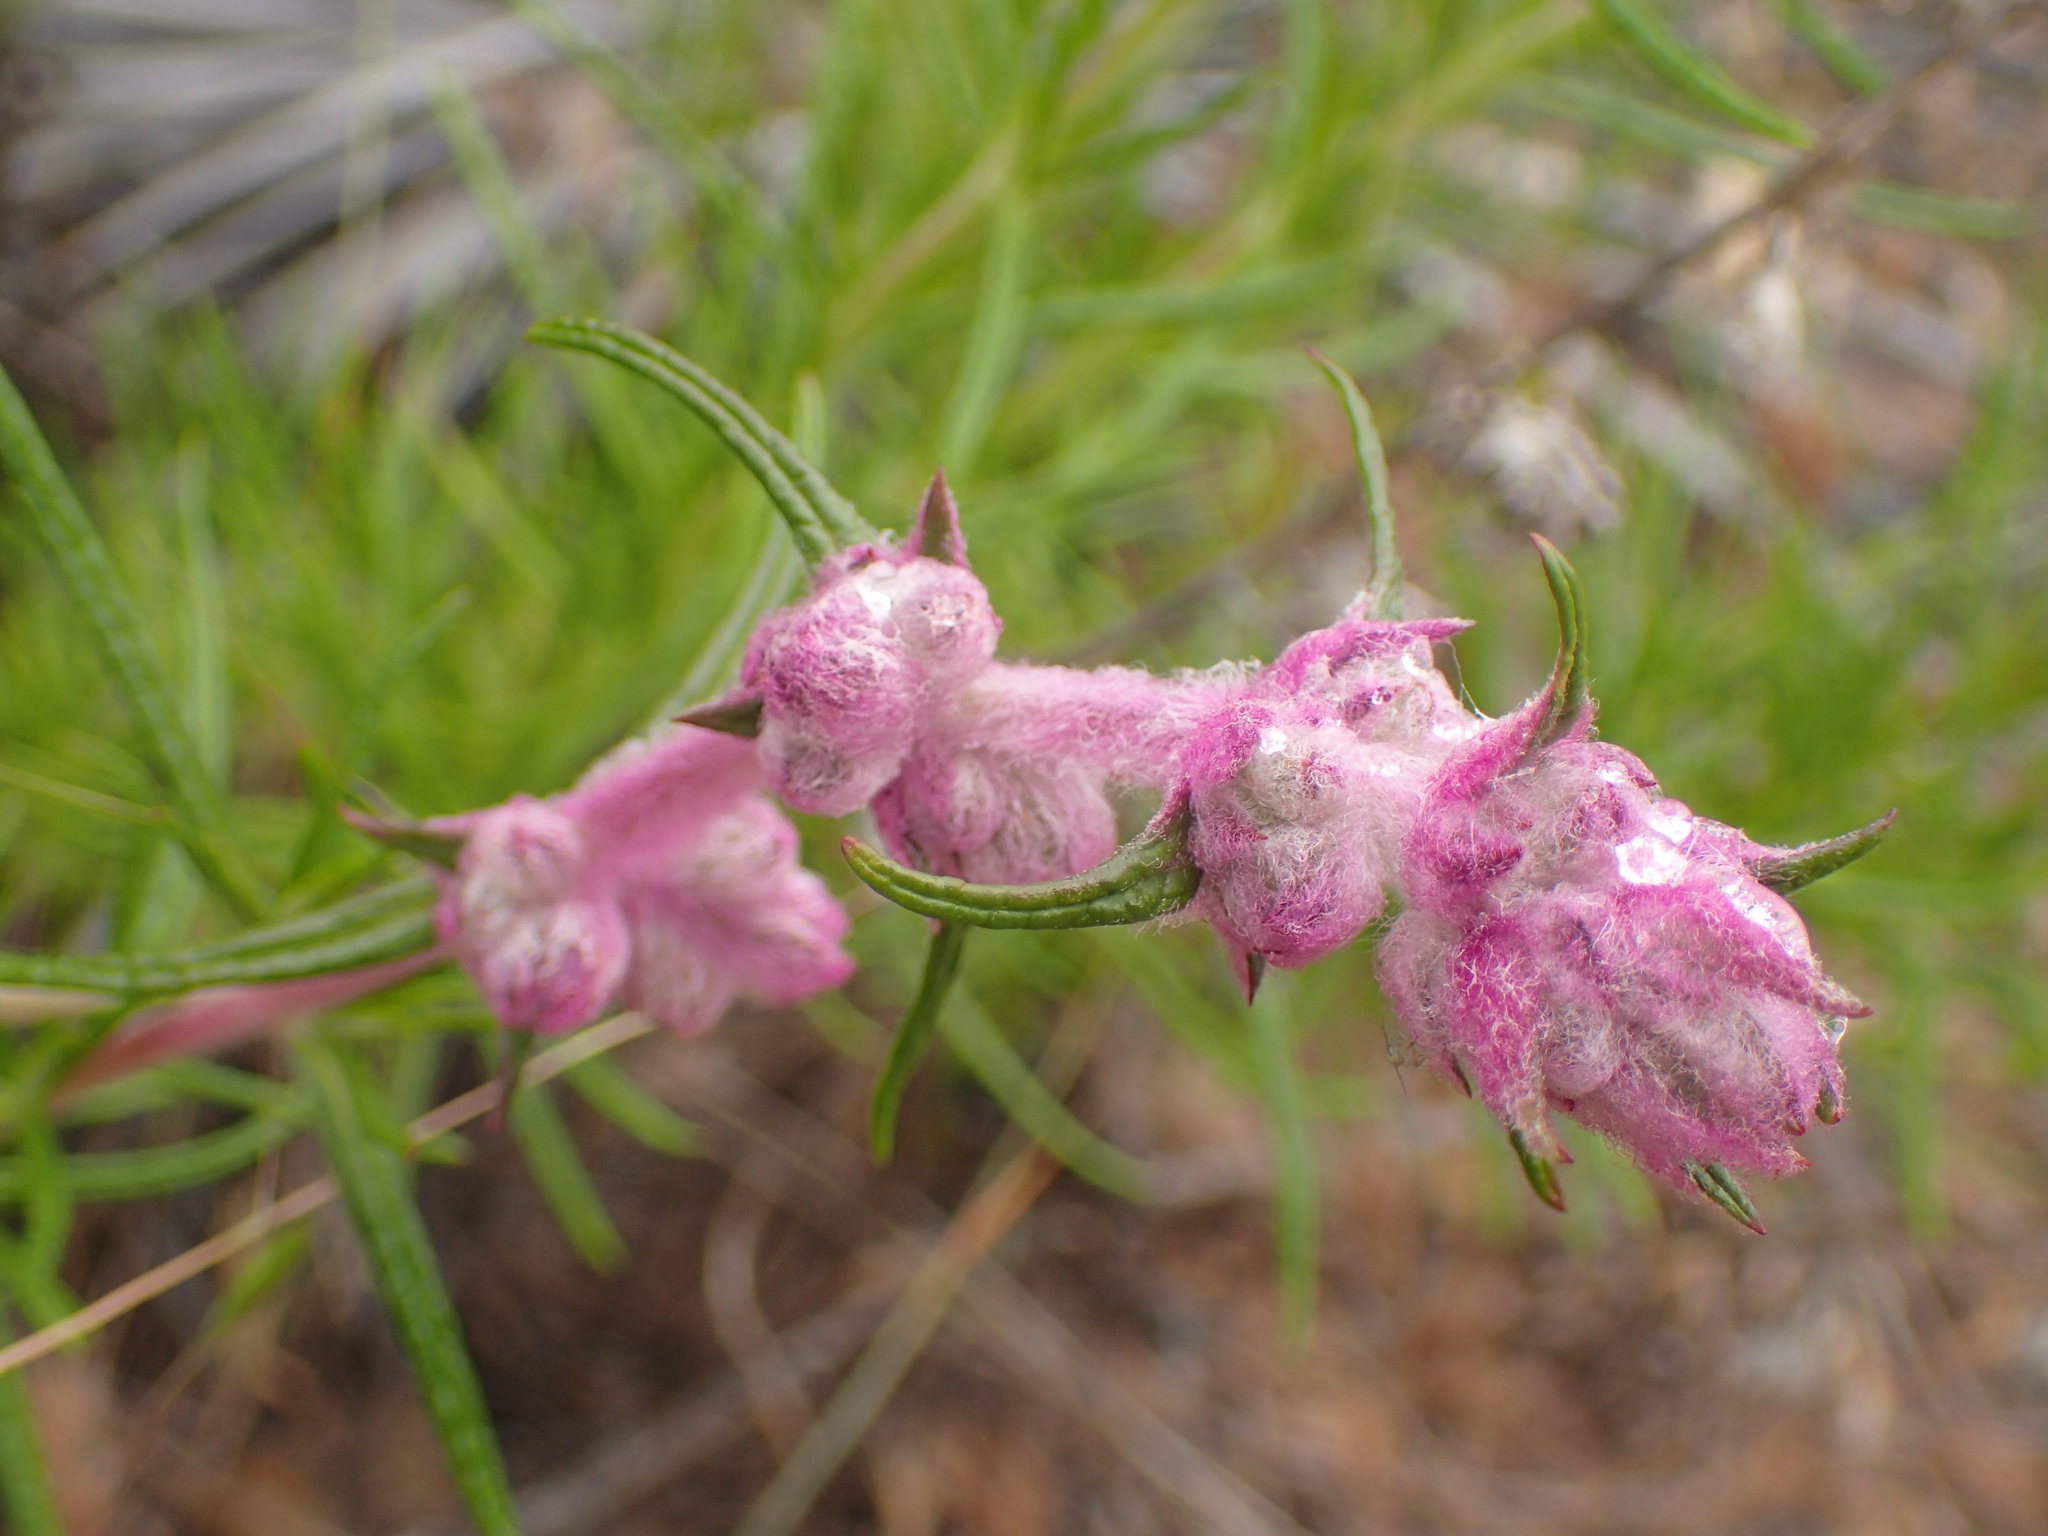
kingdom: Plantae
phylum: Tracheophyta
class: Magnoliopsida
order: Lamiales
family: Lamiaceae
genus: Trichostema
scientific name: Trichostema lanatum
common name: Woolly bluecurls
